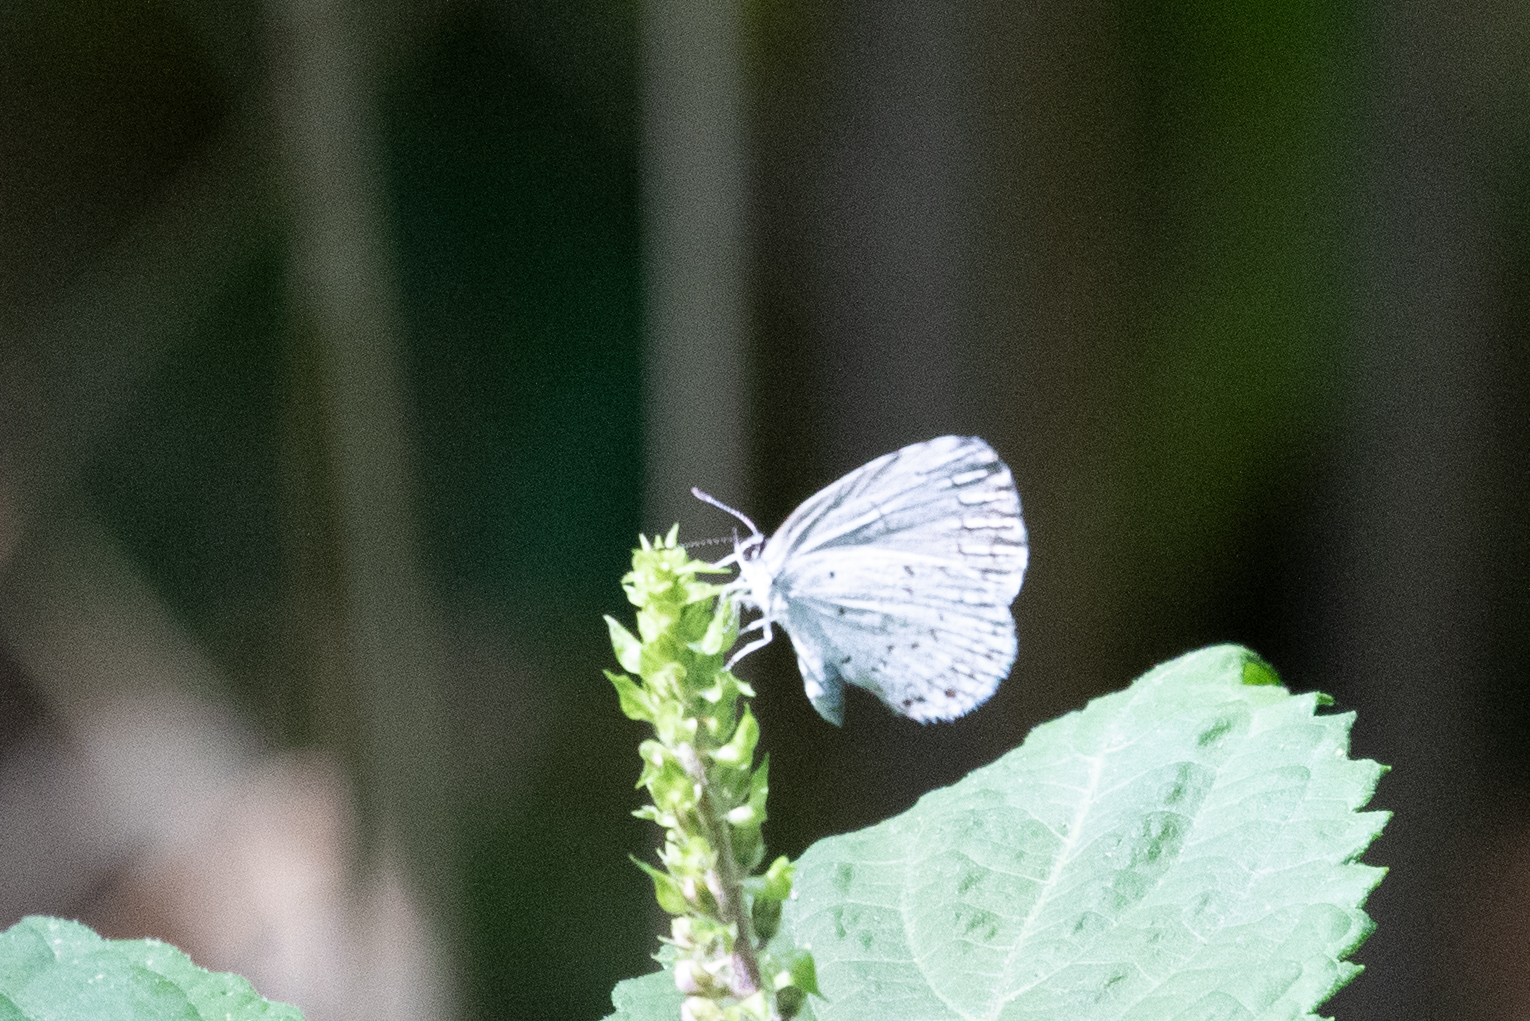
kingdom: Animalia
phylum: Arthropoda
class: Insecta
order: Lepidoptera
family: Lycaenidae
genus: Cyaniris
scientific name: Cyaniris neglecta
